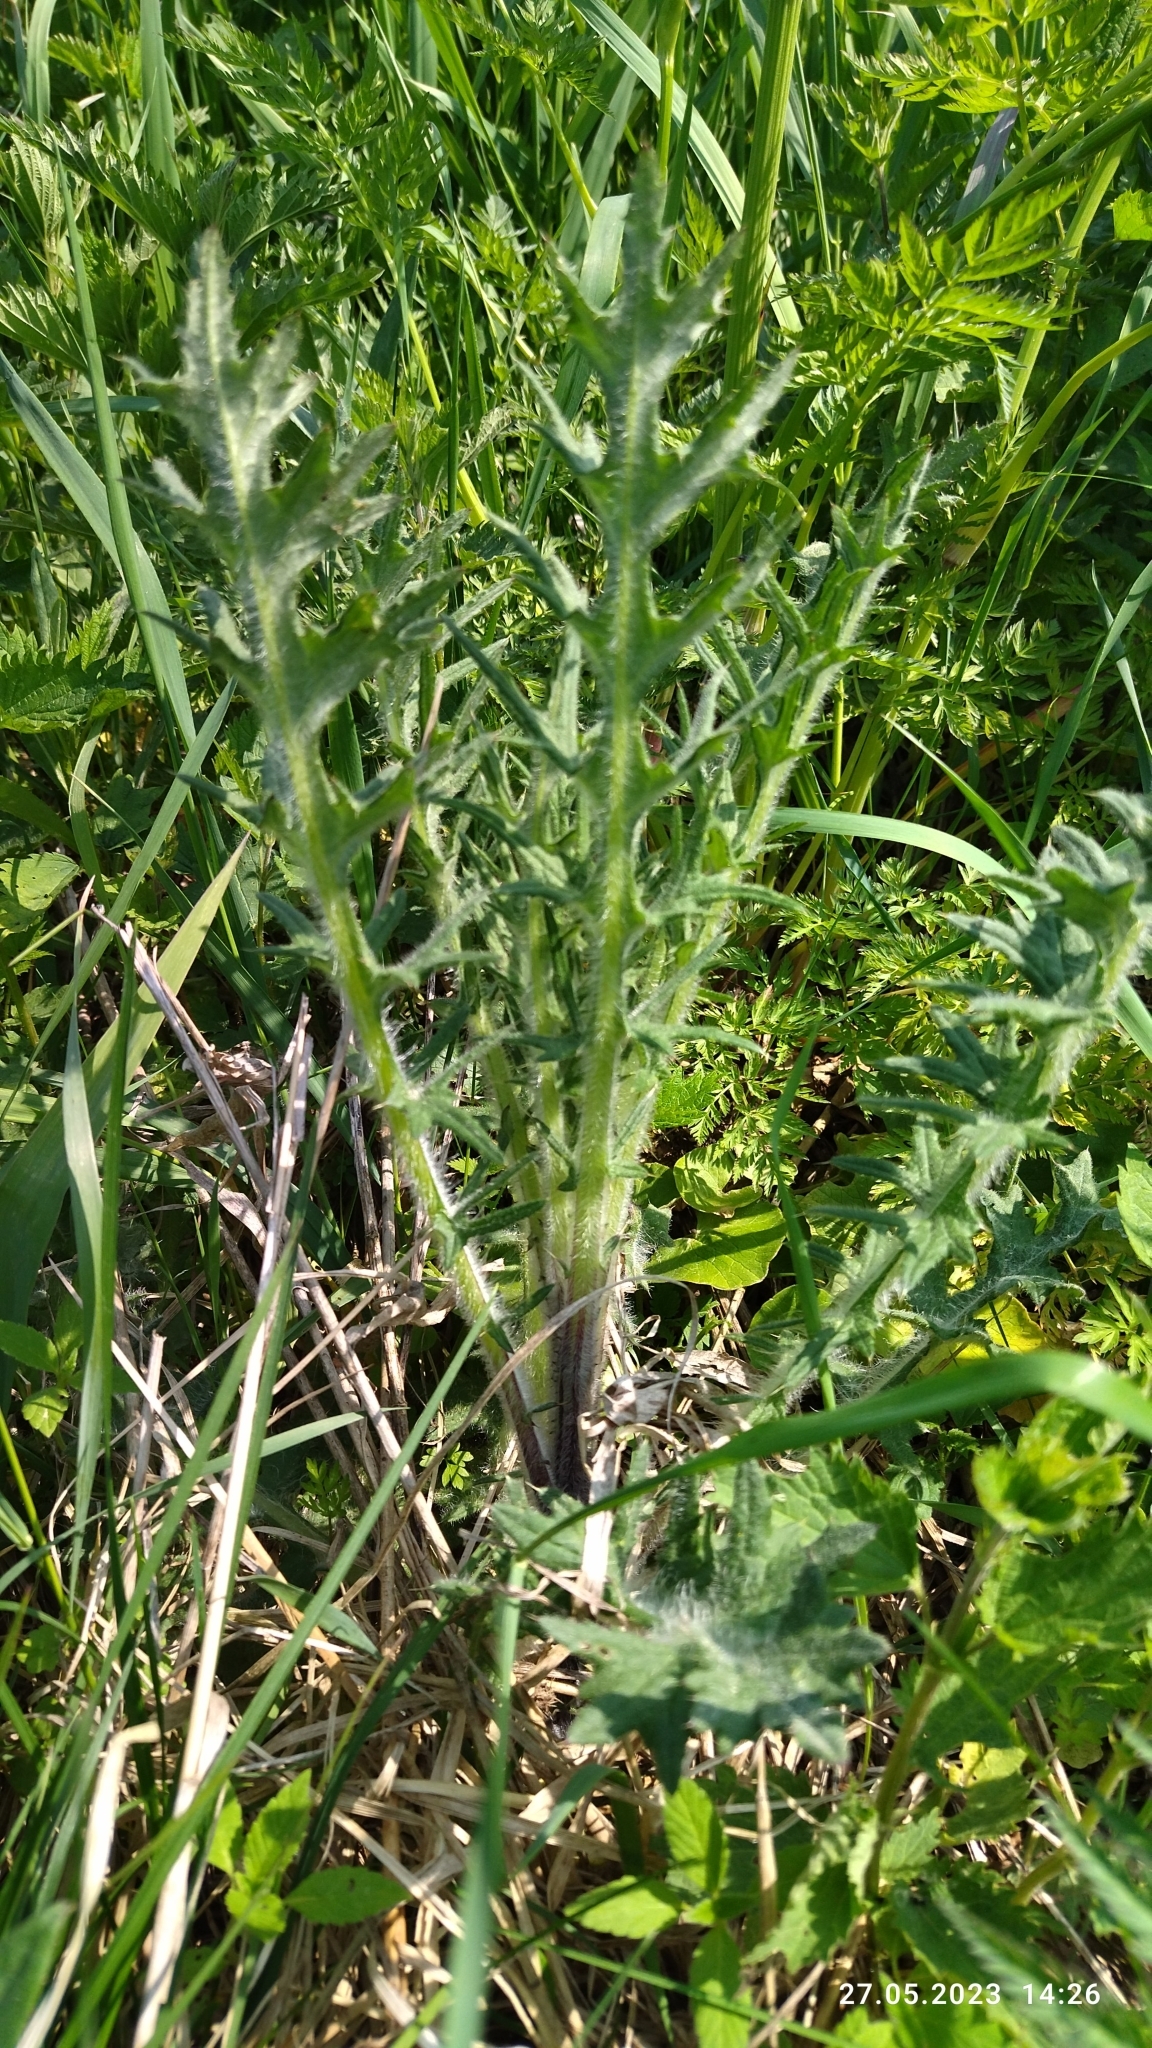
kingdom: Plantae
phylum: Tracheophyta
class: Magnoliopsida
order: Asterales
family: Asteraceae
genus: Cirsium
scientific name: Cirsium vulgare
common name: Bull thistle
